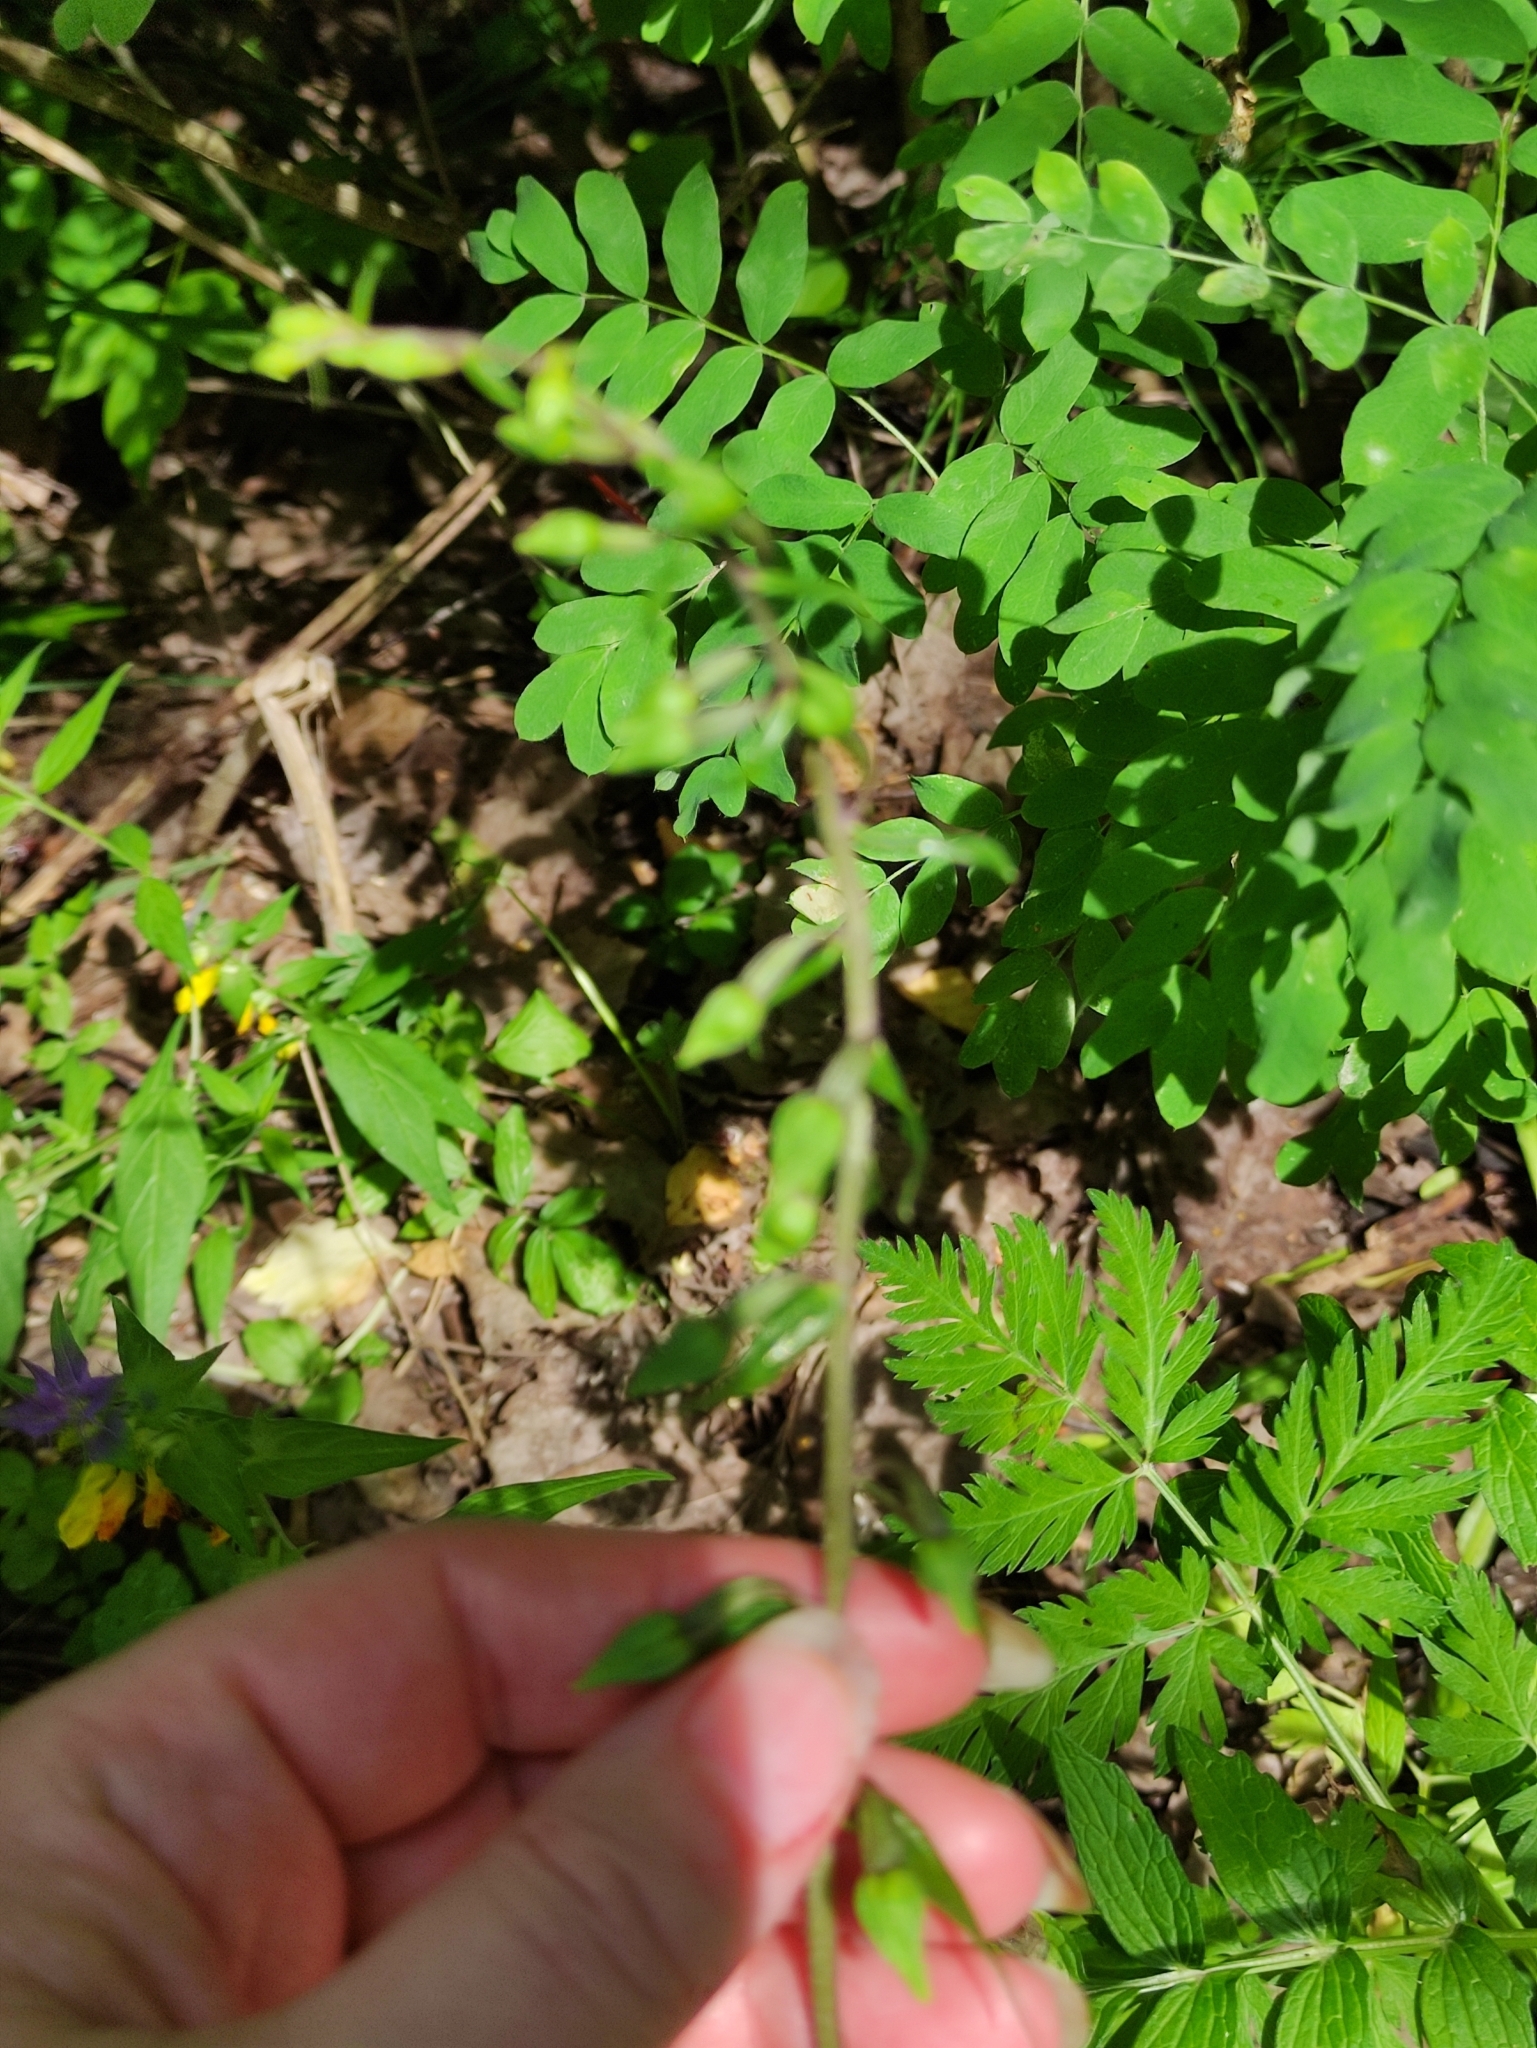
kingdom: Plantae
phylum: Tracheophyta
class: Liliopsida
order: Asparagales
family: Orchidaceae
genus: Epipactis
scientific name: Epipactis helleborine
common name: Broad-leaved helleborine
